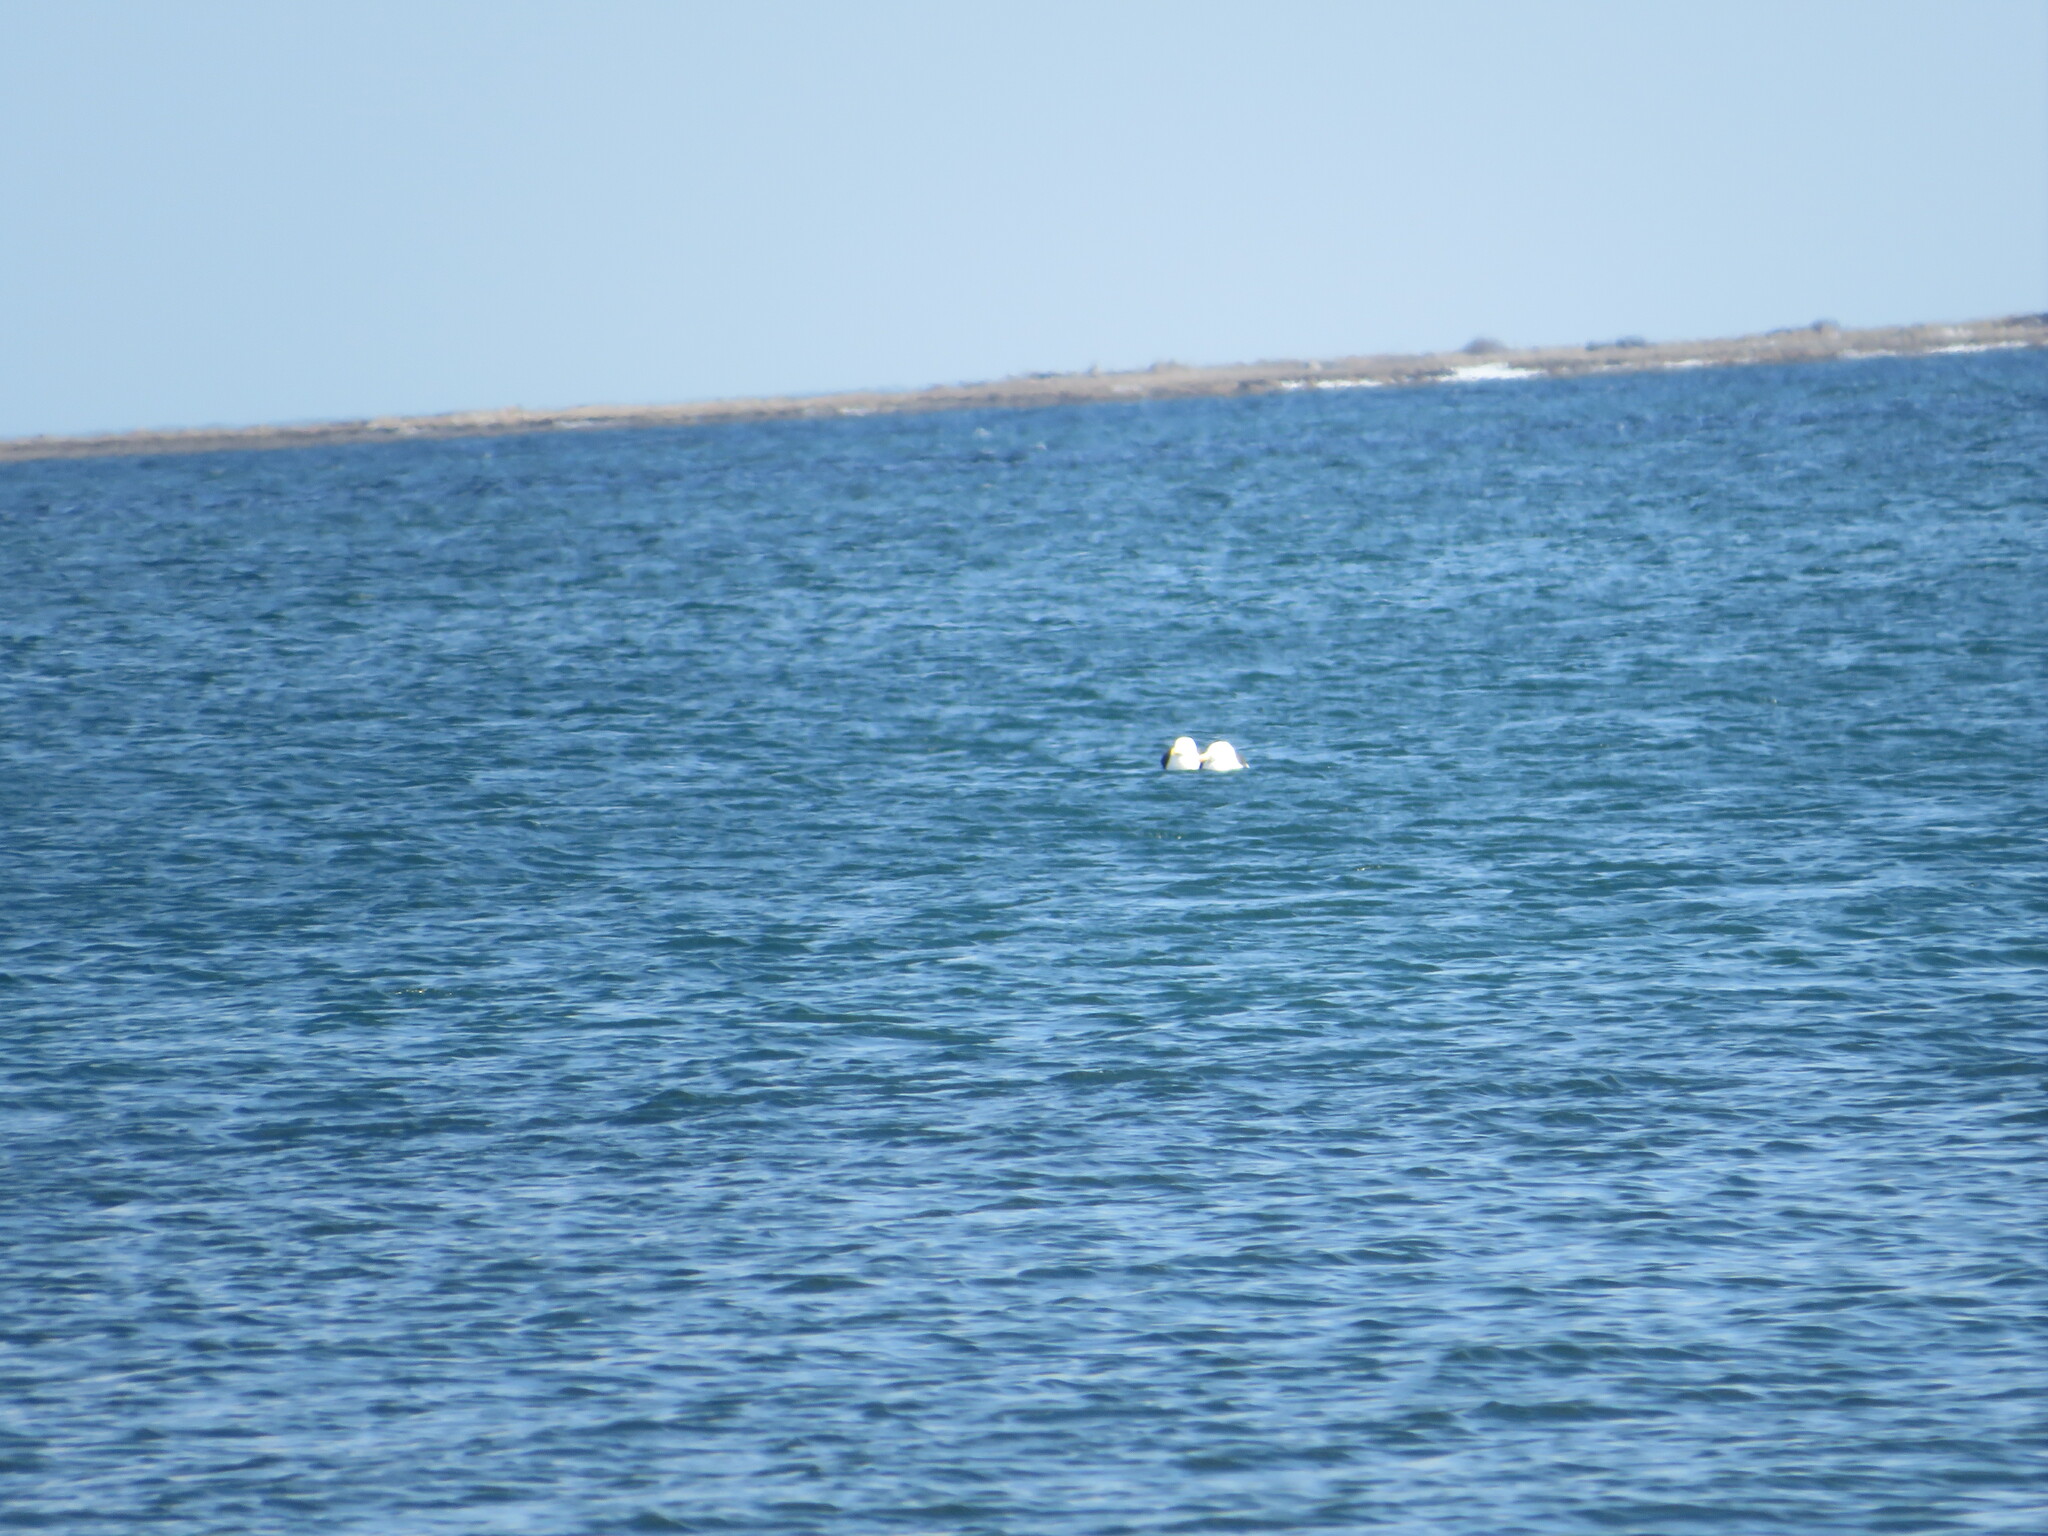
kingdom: Animalia
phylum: Chordata
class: Aves
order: Charadriiformes
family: Laridae
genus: Larus
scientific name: Larus marinus
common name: Great black-backed gull
